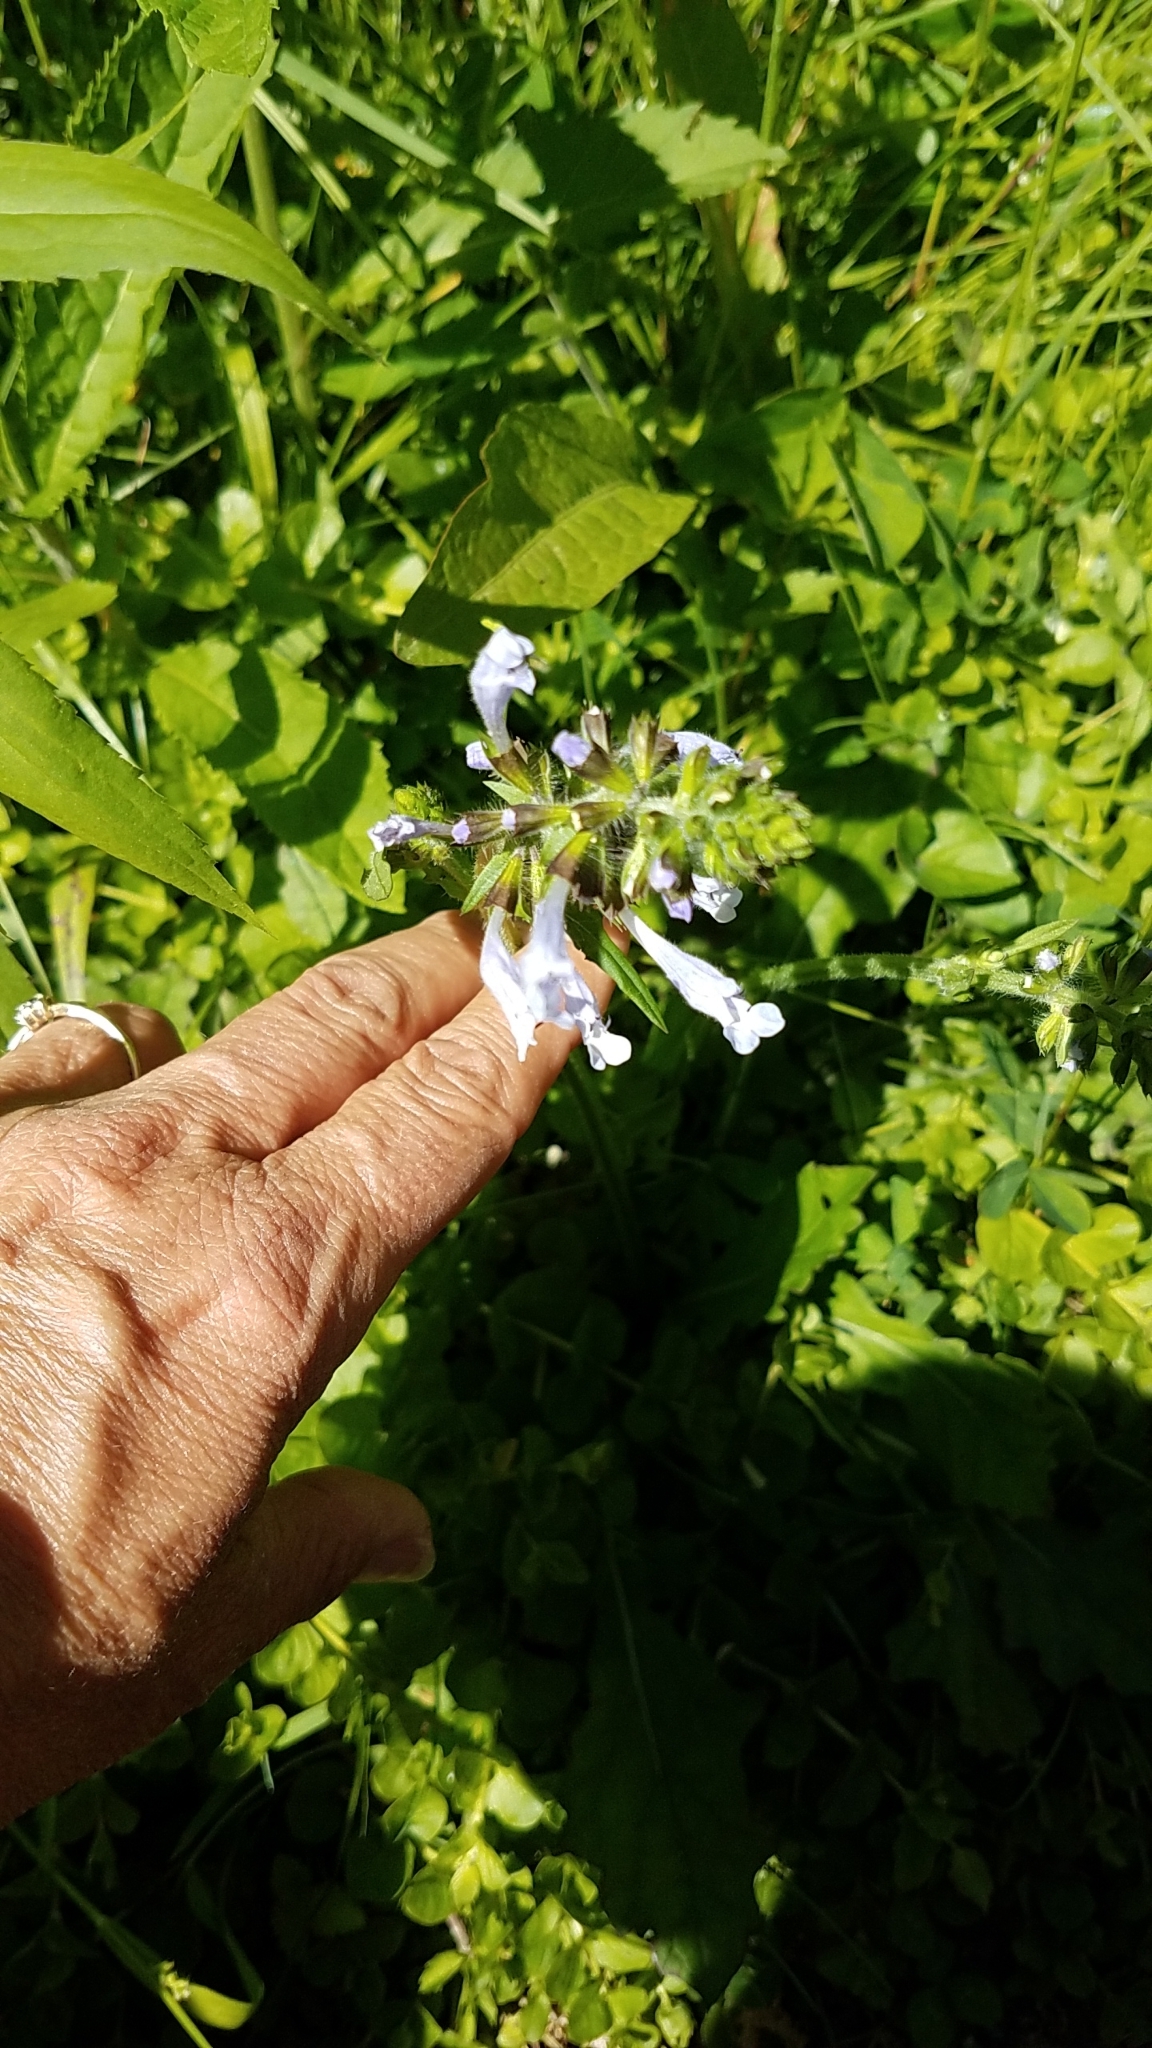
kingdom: Plantae
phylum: Tracheophyta
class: Magnoliopsida
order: Lamiales
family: Lamiaceae
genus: Salvia
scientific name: Salvia lyrata
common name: Cancerweed
